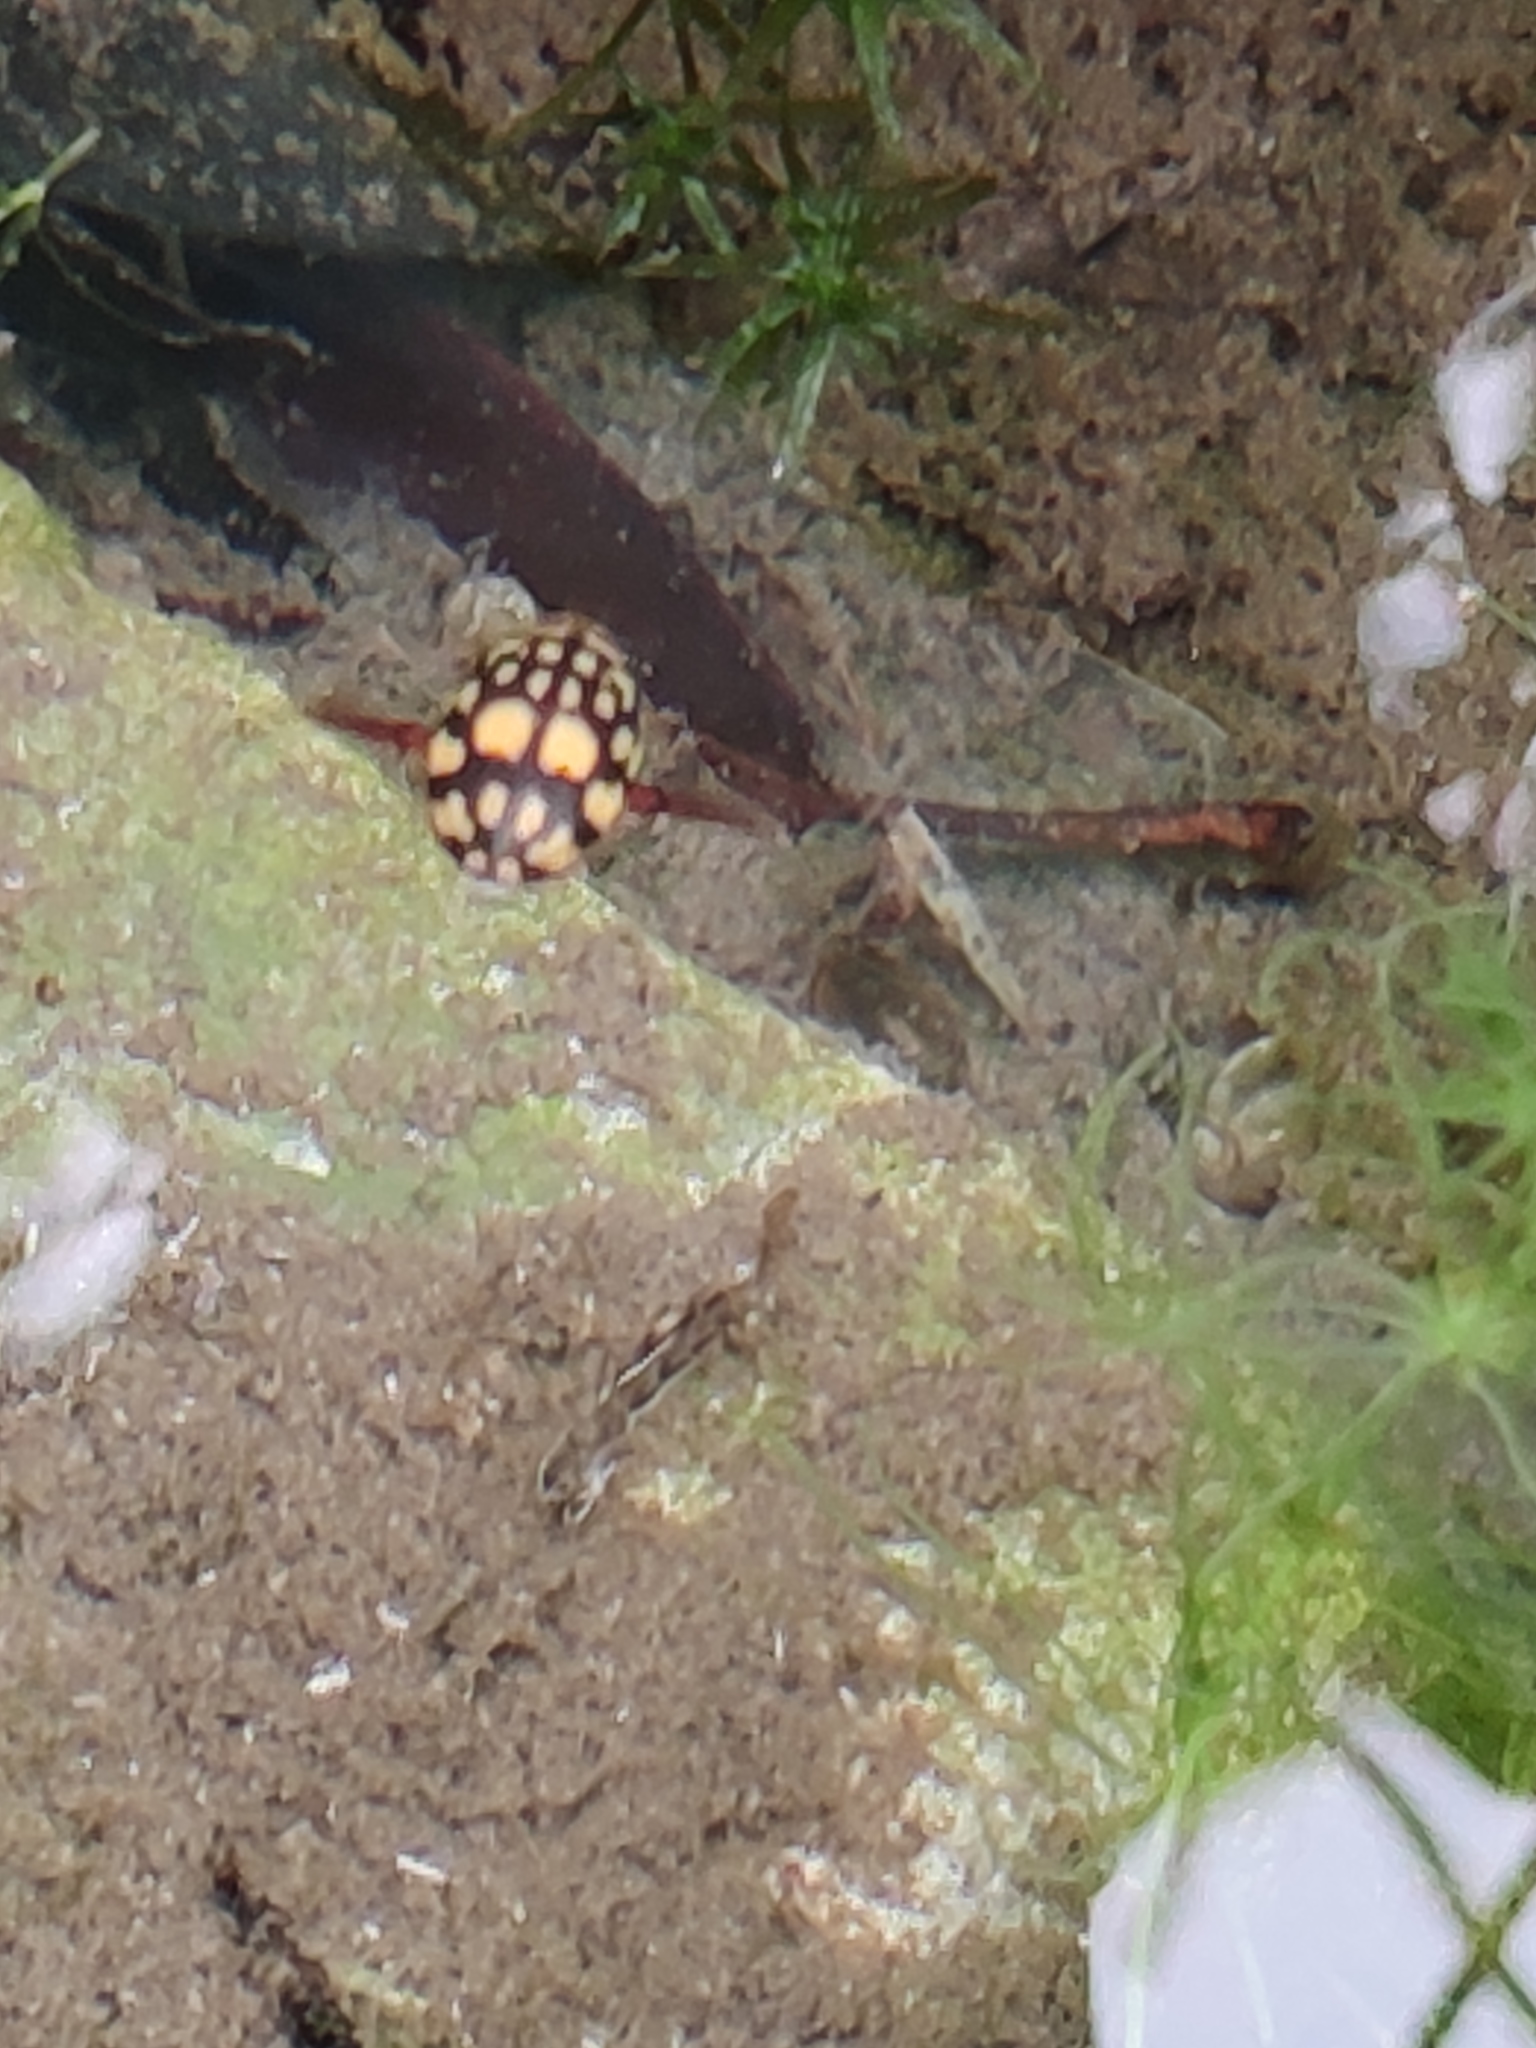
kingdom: Animalia
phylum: Arthropoda
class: Insecta
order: Coleoptera
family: Dytiscidae
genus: Thermonectus
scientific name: Thermonectus marmoratus
